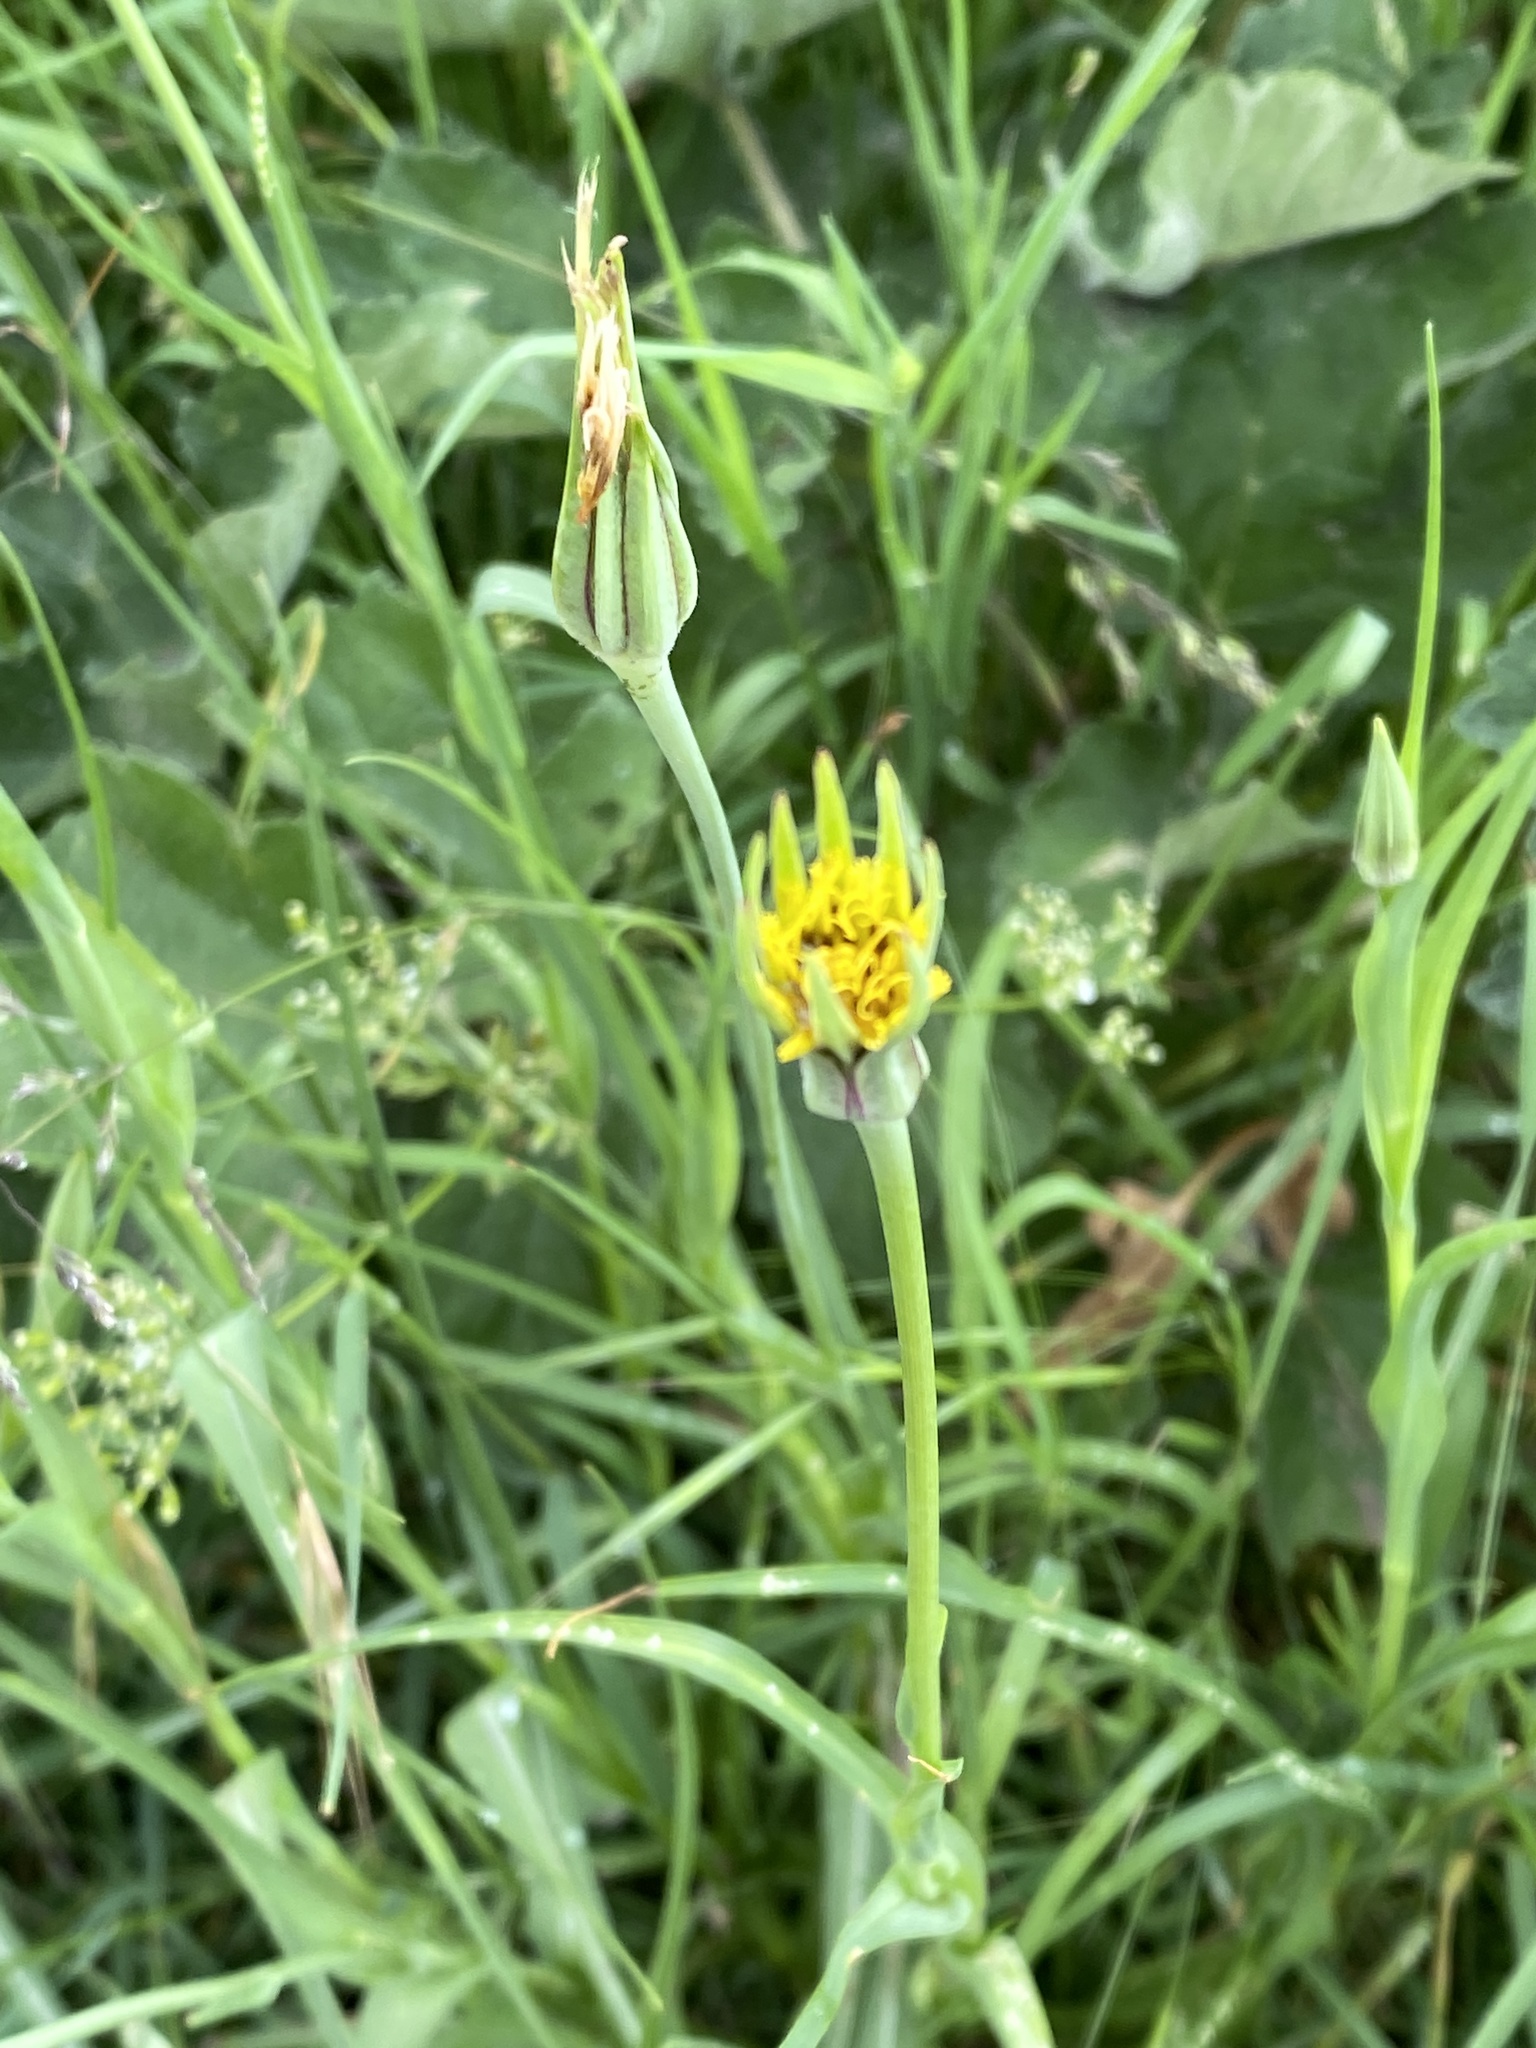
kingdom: Plantae
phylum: Tracheophyta
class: Magnoliopsida
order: Asterales
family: Asteraceae
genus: Tragopogon
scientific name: Tragopogon pratensis
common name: Goat's-beard
